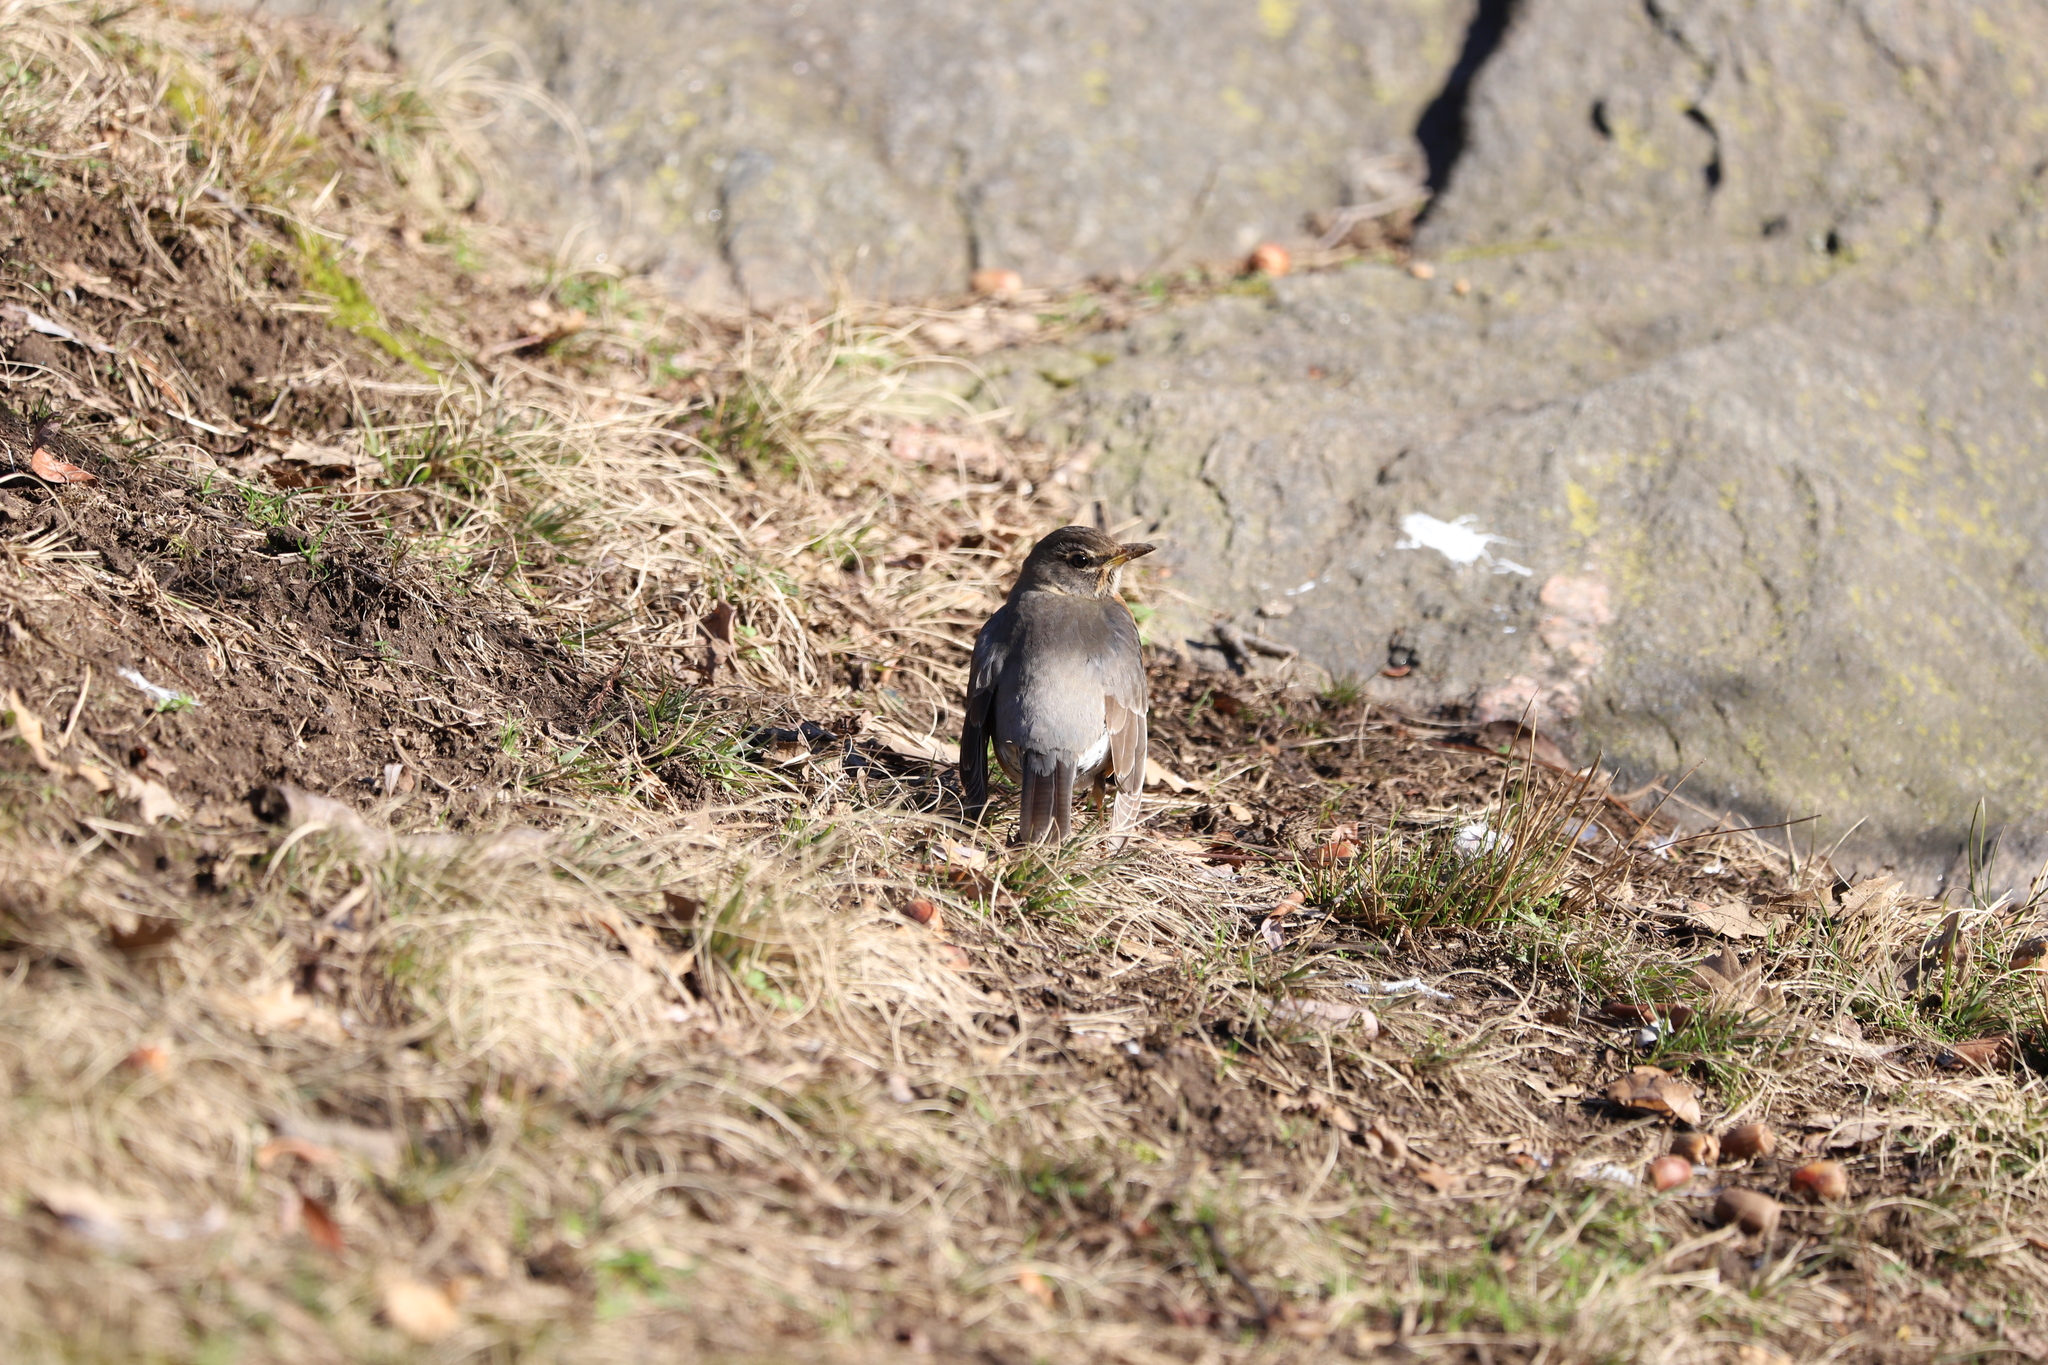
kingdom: Animalia
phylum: Chordata
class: Aves
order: Passeriformes
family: Turdidae
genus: Turdus
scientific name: Turdus migratorius
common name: American robin
